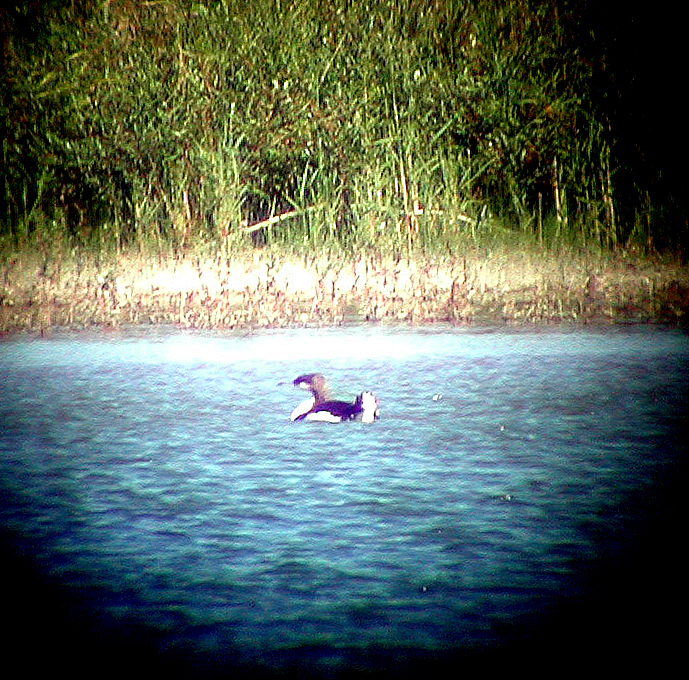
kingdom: Animalia
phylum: Chordata
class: Aves
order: Gaviiformes
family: Gaviidae
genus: Gavia
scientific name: Gavia arctica
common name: Black-throated loon
